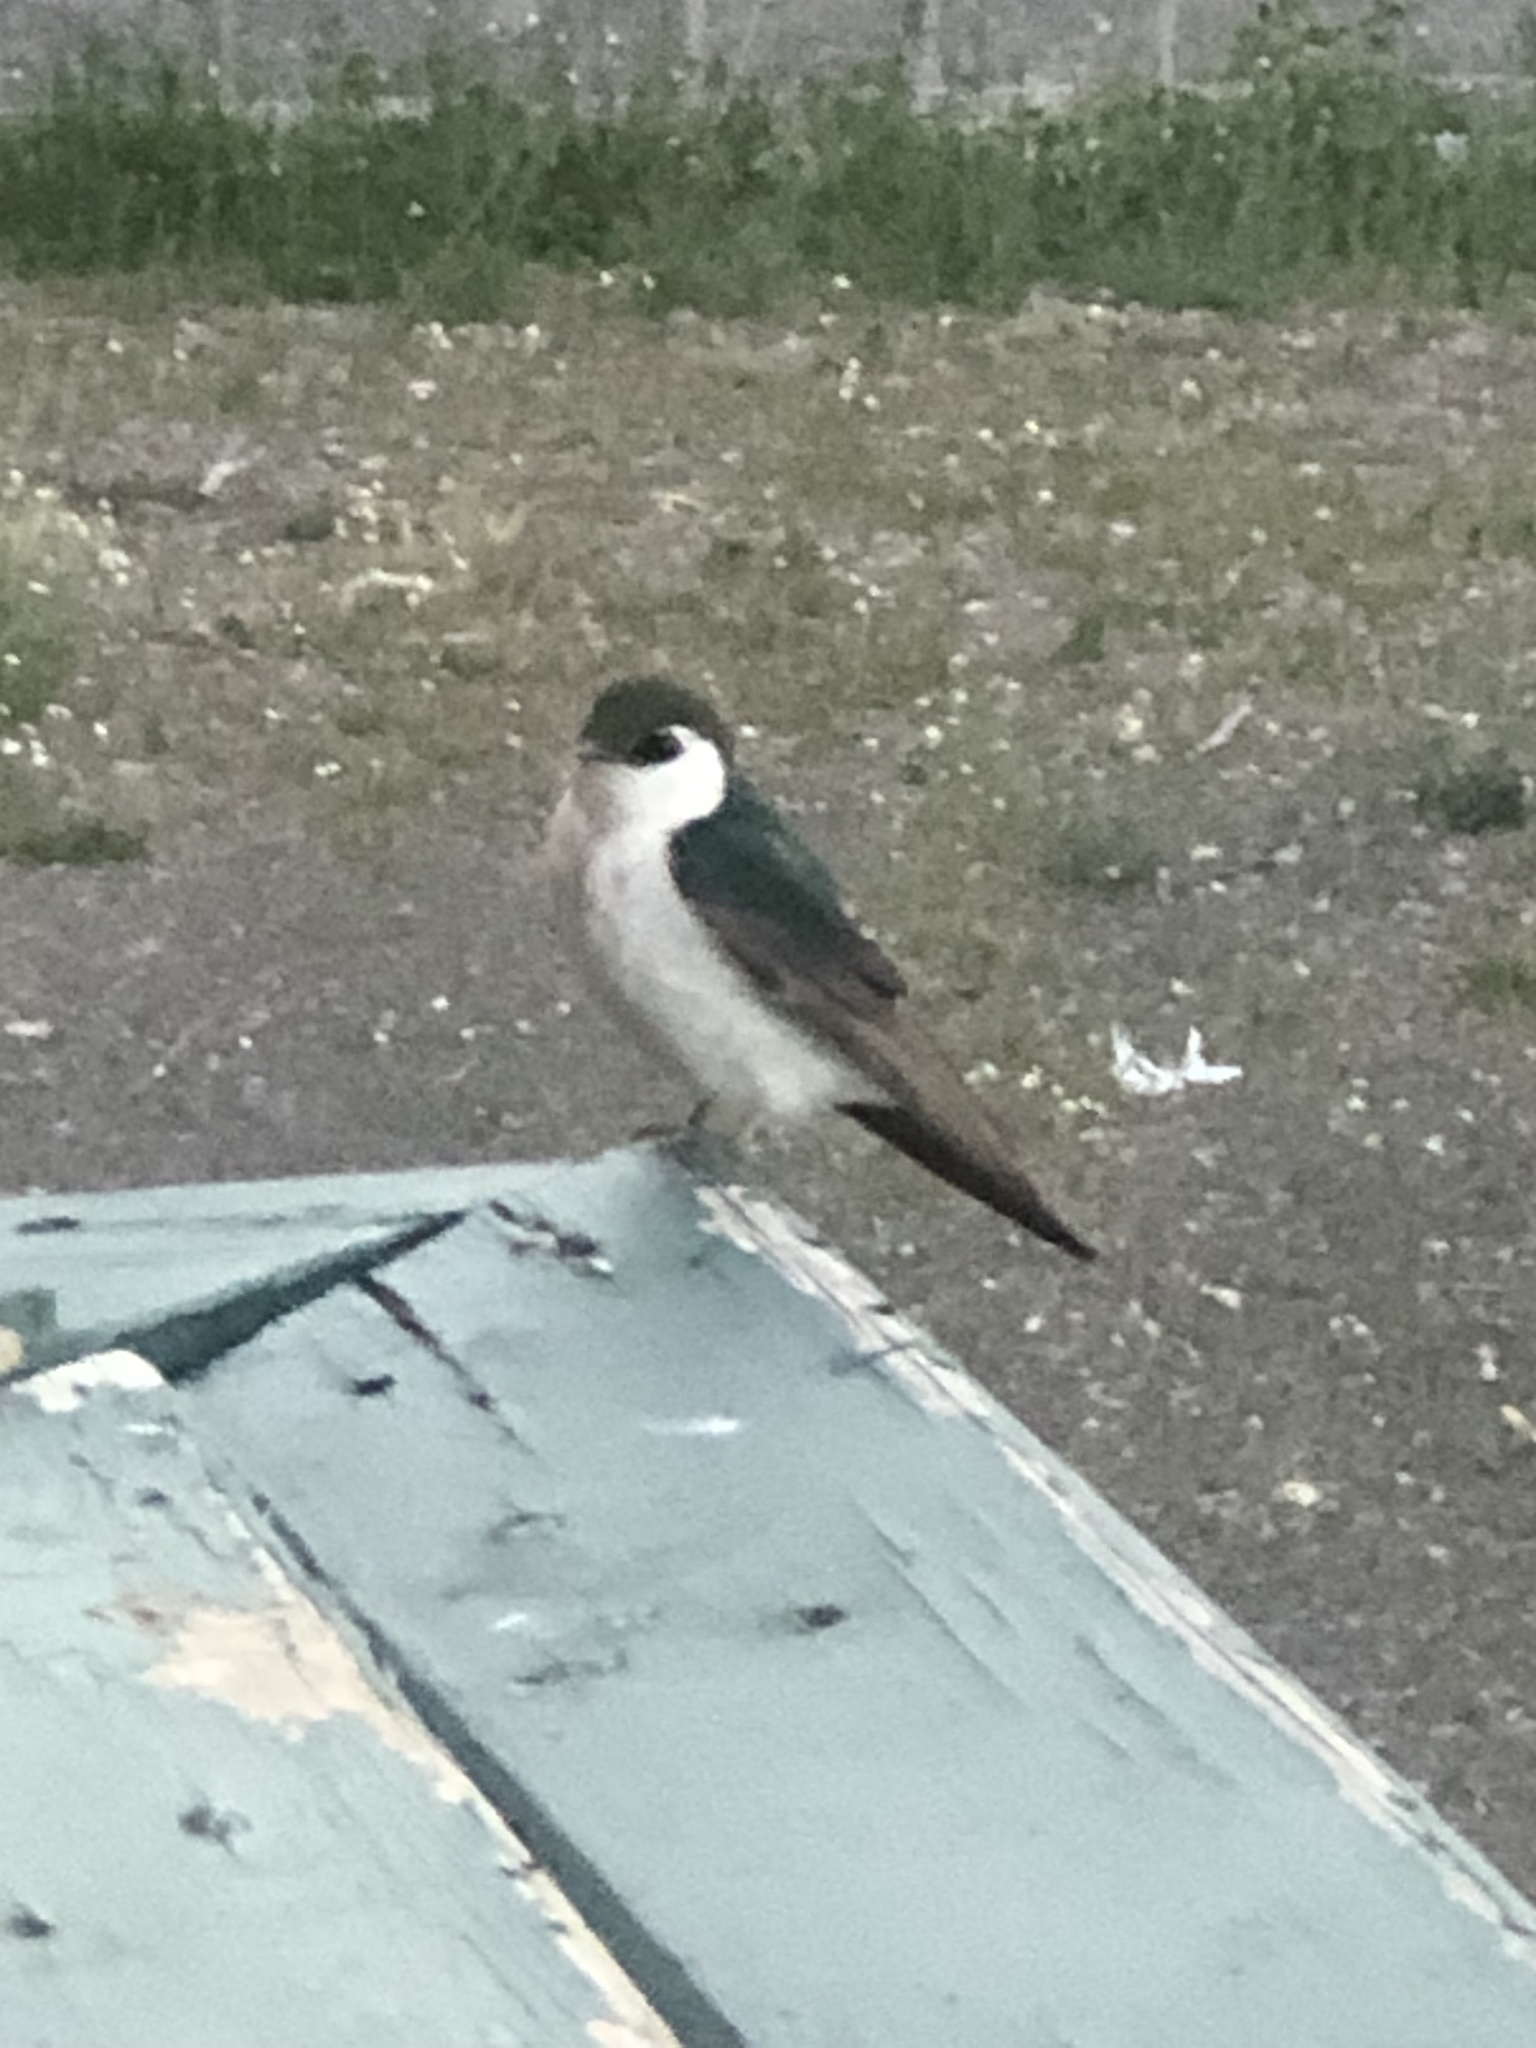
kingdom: Animalia
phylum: Chordata
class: Aves
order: Passeriformes
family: Hirundinidae
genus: Tachycineta
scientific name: Tachycineta thalassina
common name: Violet-green swallow
